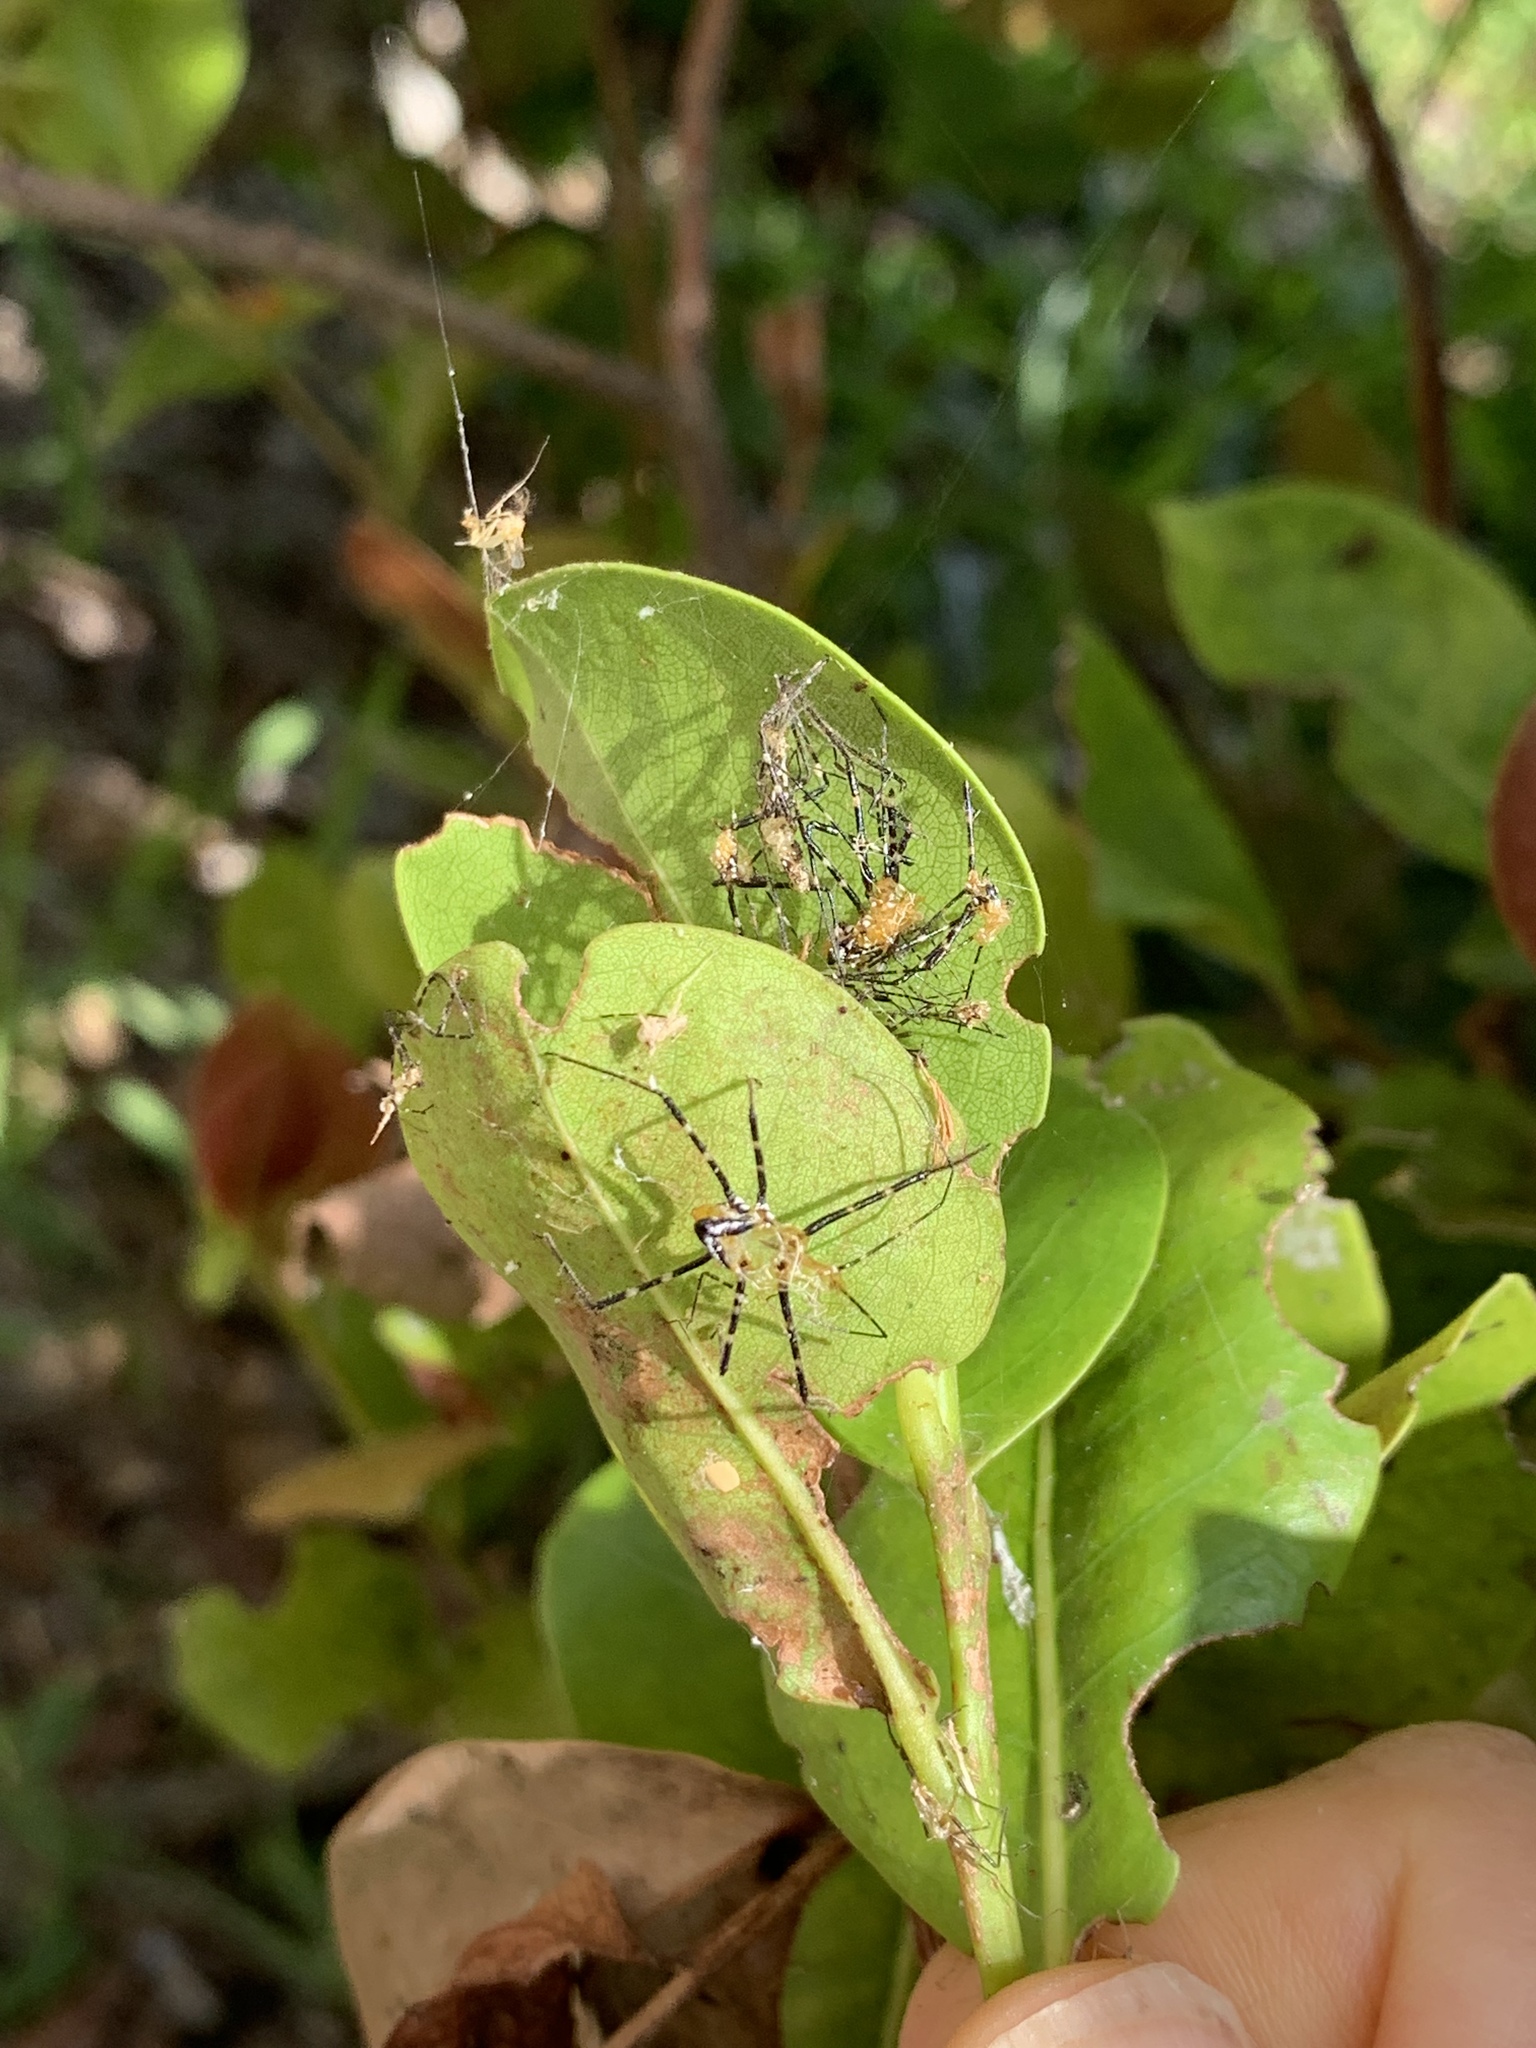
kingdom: Animalia
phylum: Arthropoda
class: Insecta
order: Hemiptera
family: Reduviidae
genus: Zelus
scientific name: Zelus longipes
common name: Milkweed assassin bug
